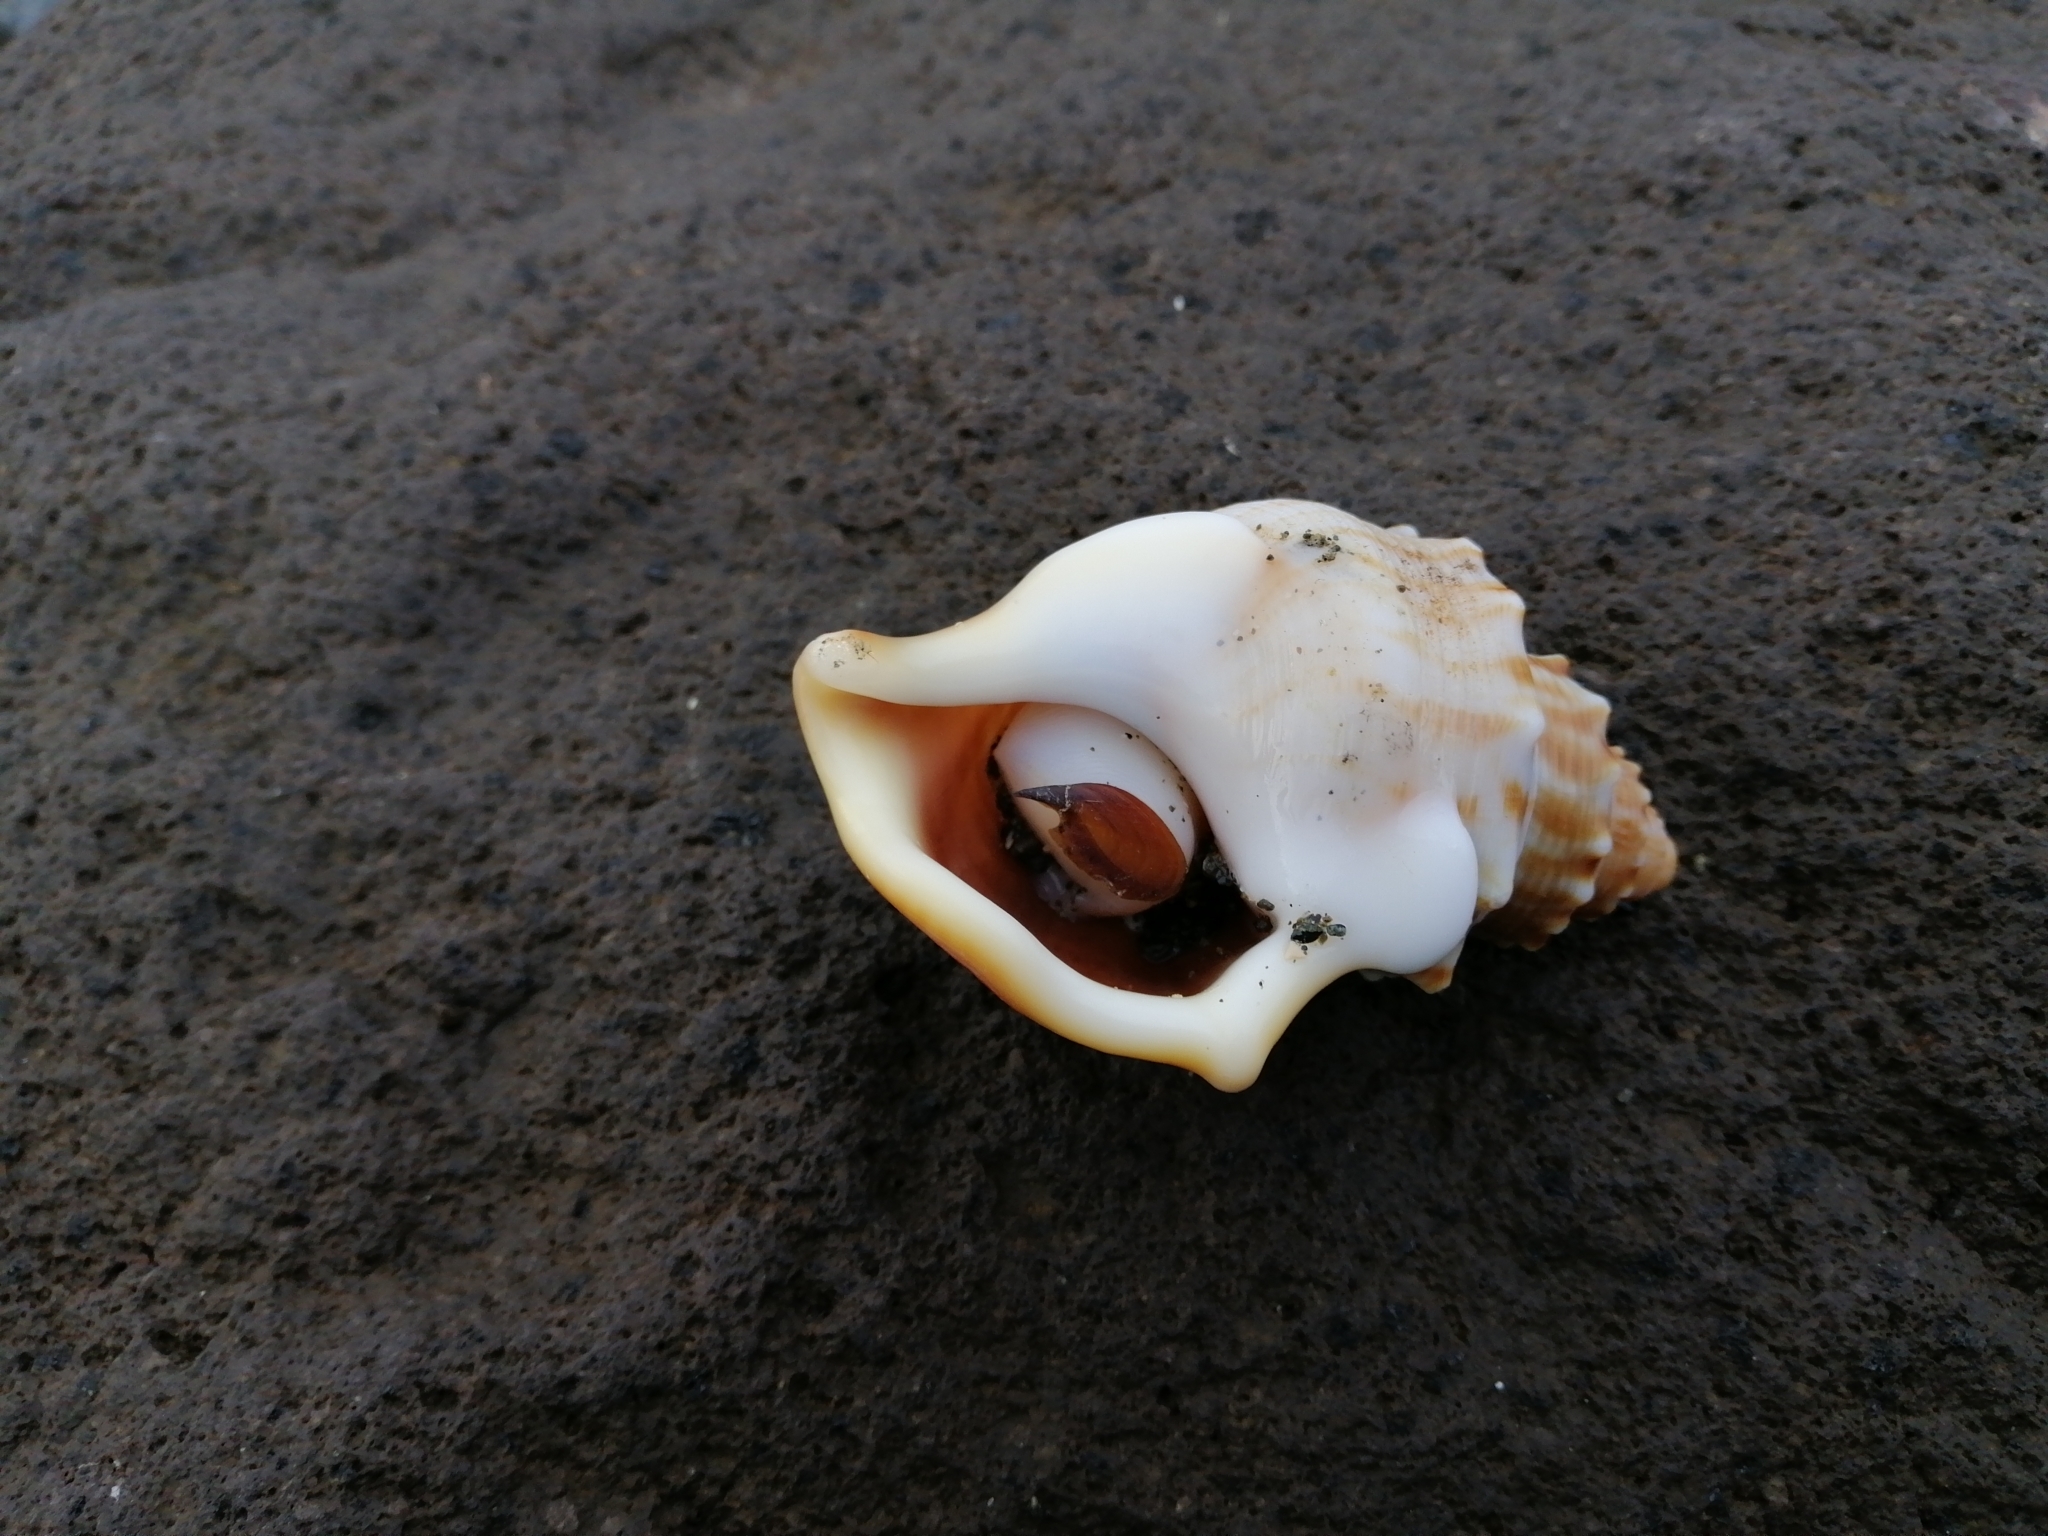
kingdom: Animalia
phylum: Mollusca
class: Gastropoda
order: Littorinimorpha
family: Struthiolariidae
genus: Struthiolaria
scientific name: Struthiolaria papulosa
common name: Large ostrich foot
